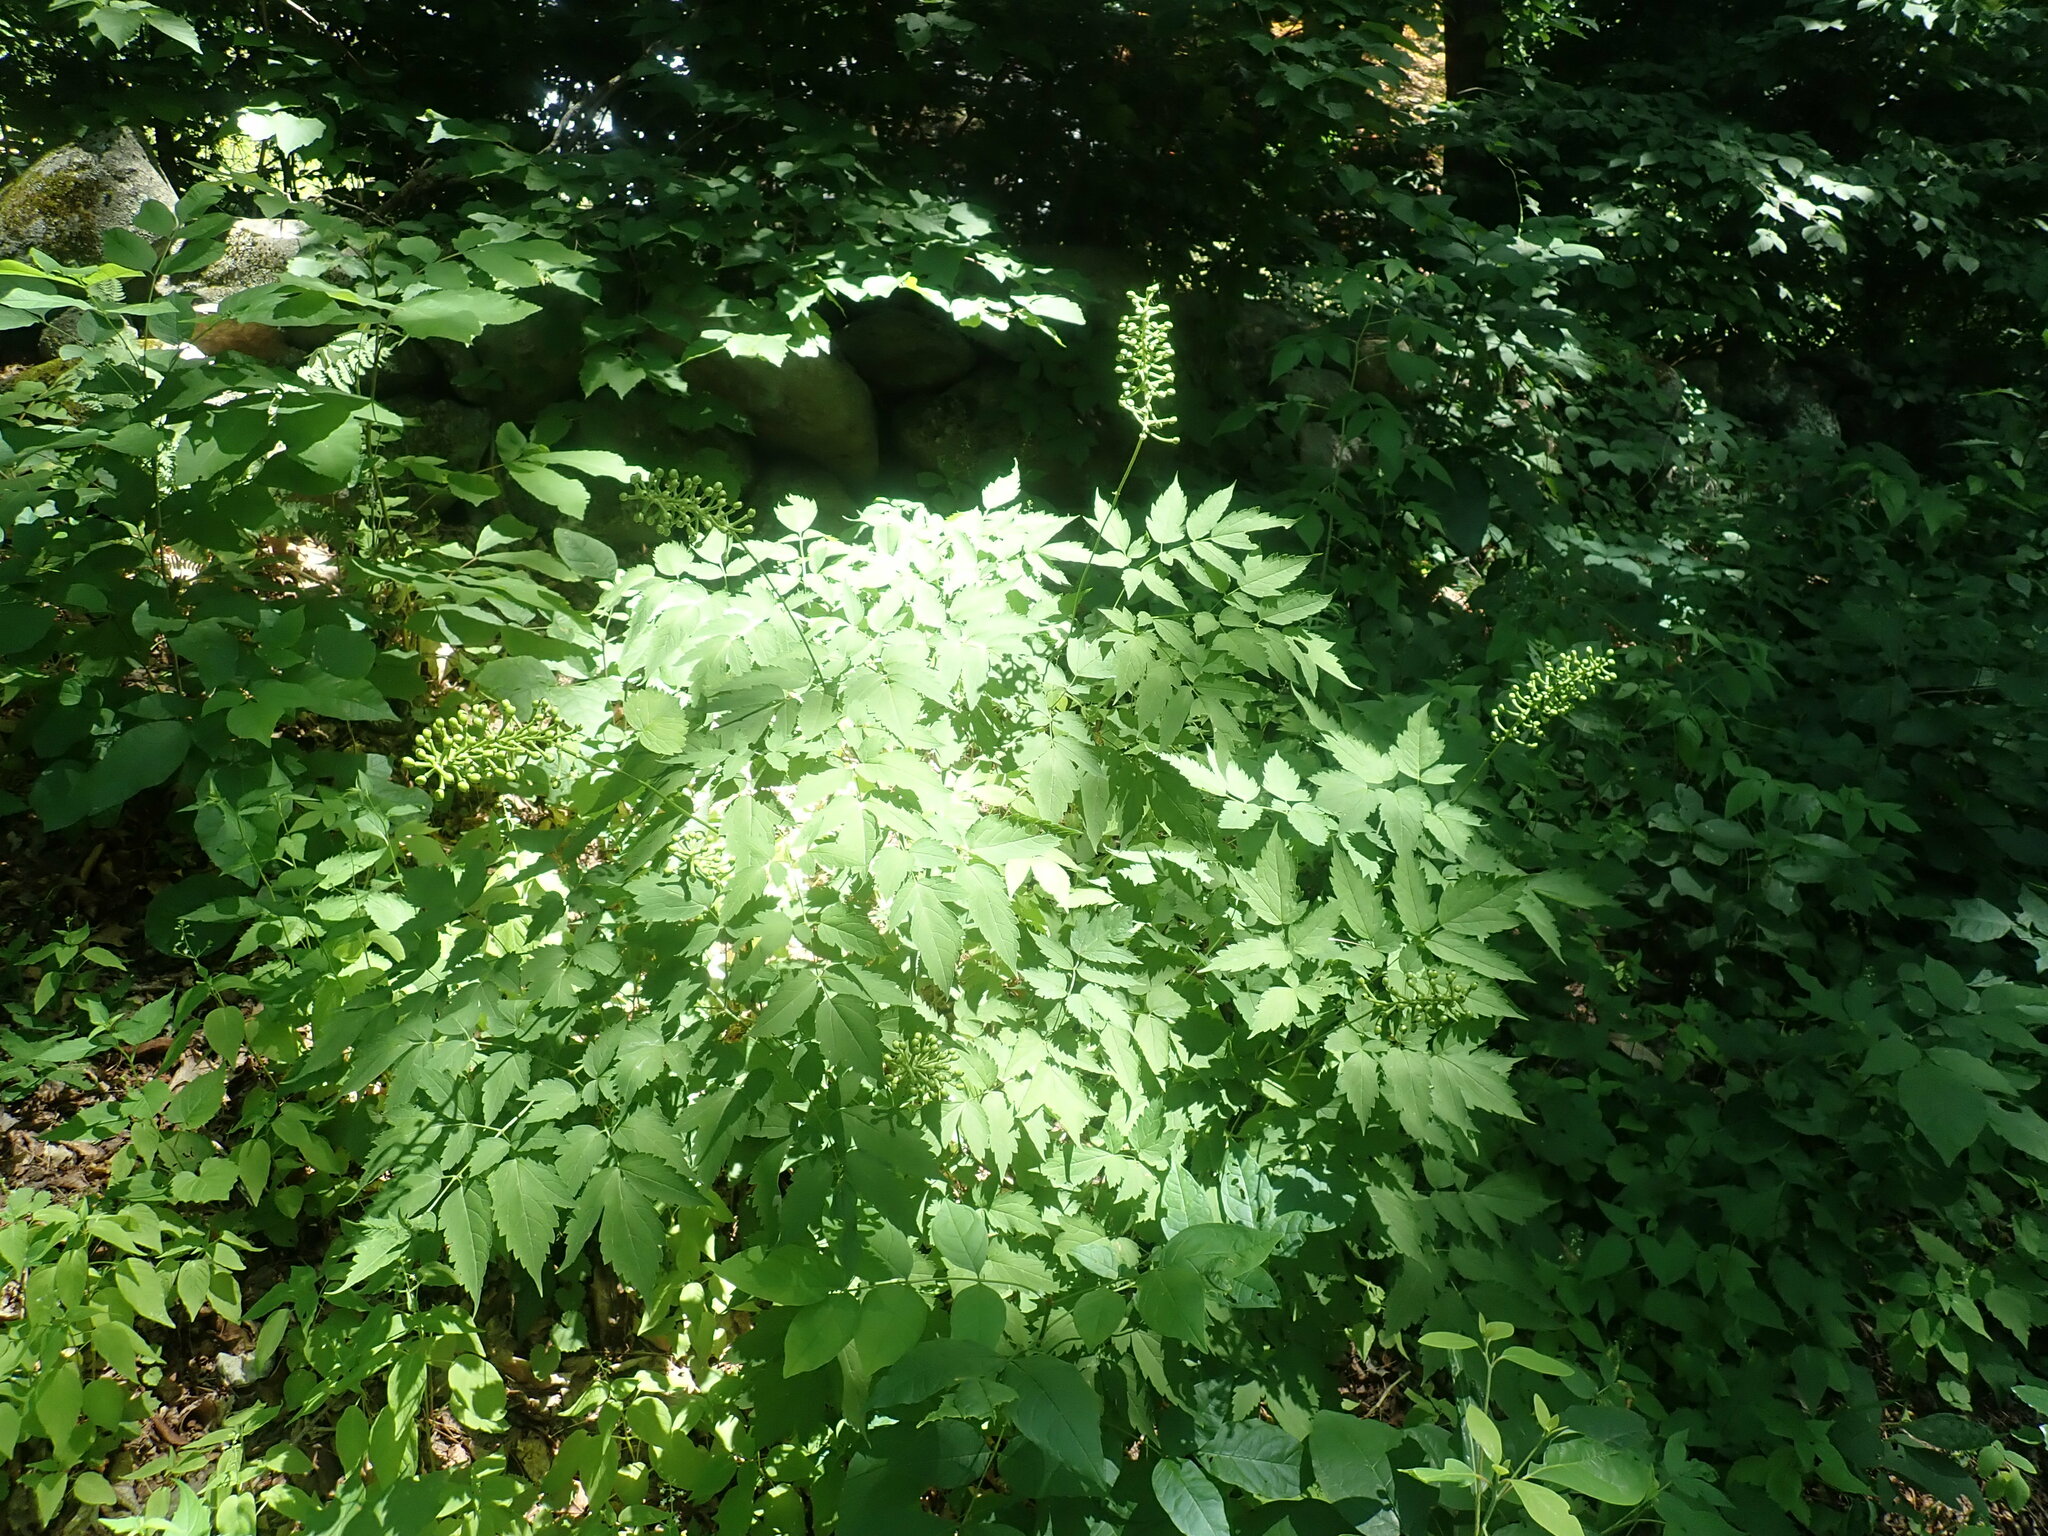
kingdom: Plantae
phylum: Tracheophyta
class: Magnoliopsida
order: Ranunculales
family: Ranunculaceae
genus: Actaea
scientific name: Actaea pachypoda
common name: Doll's-eyes
